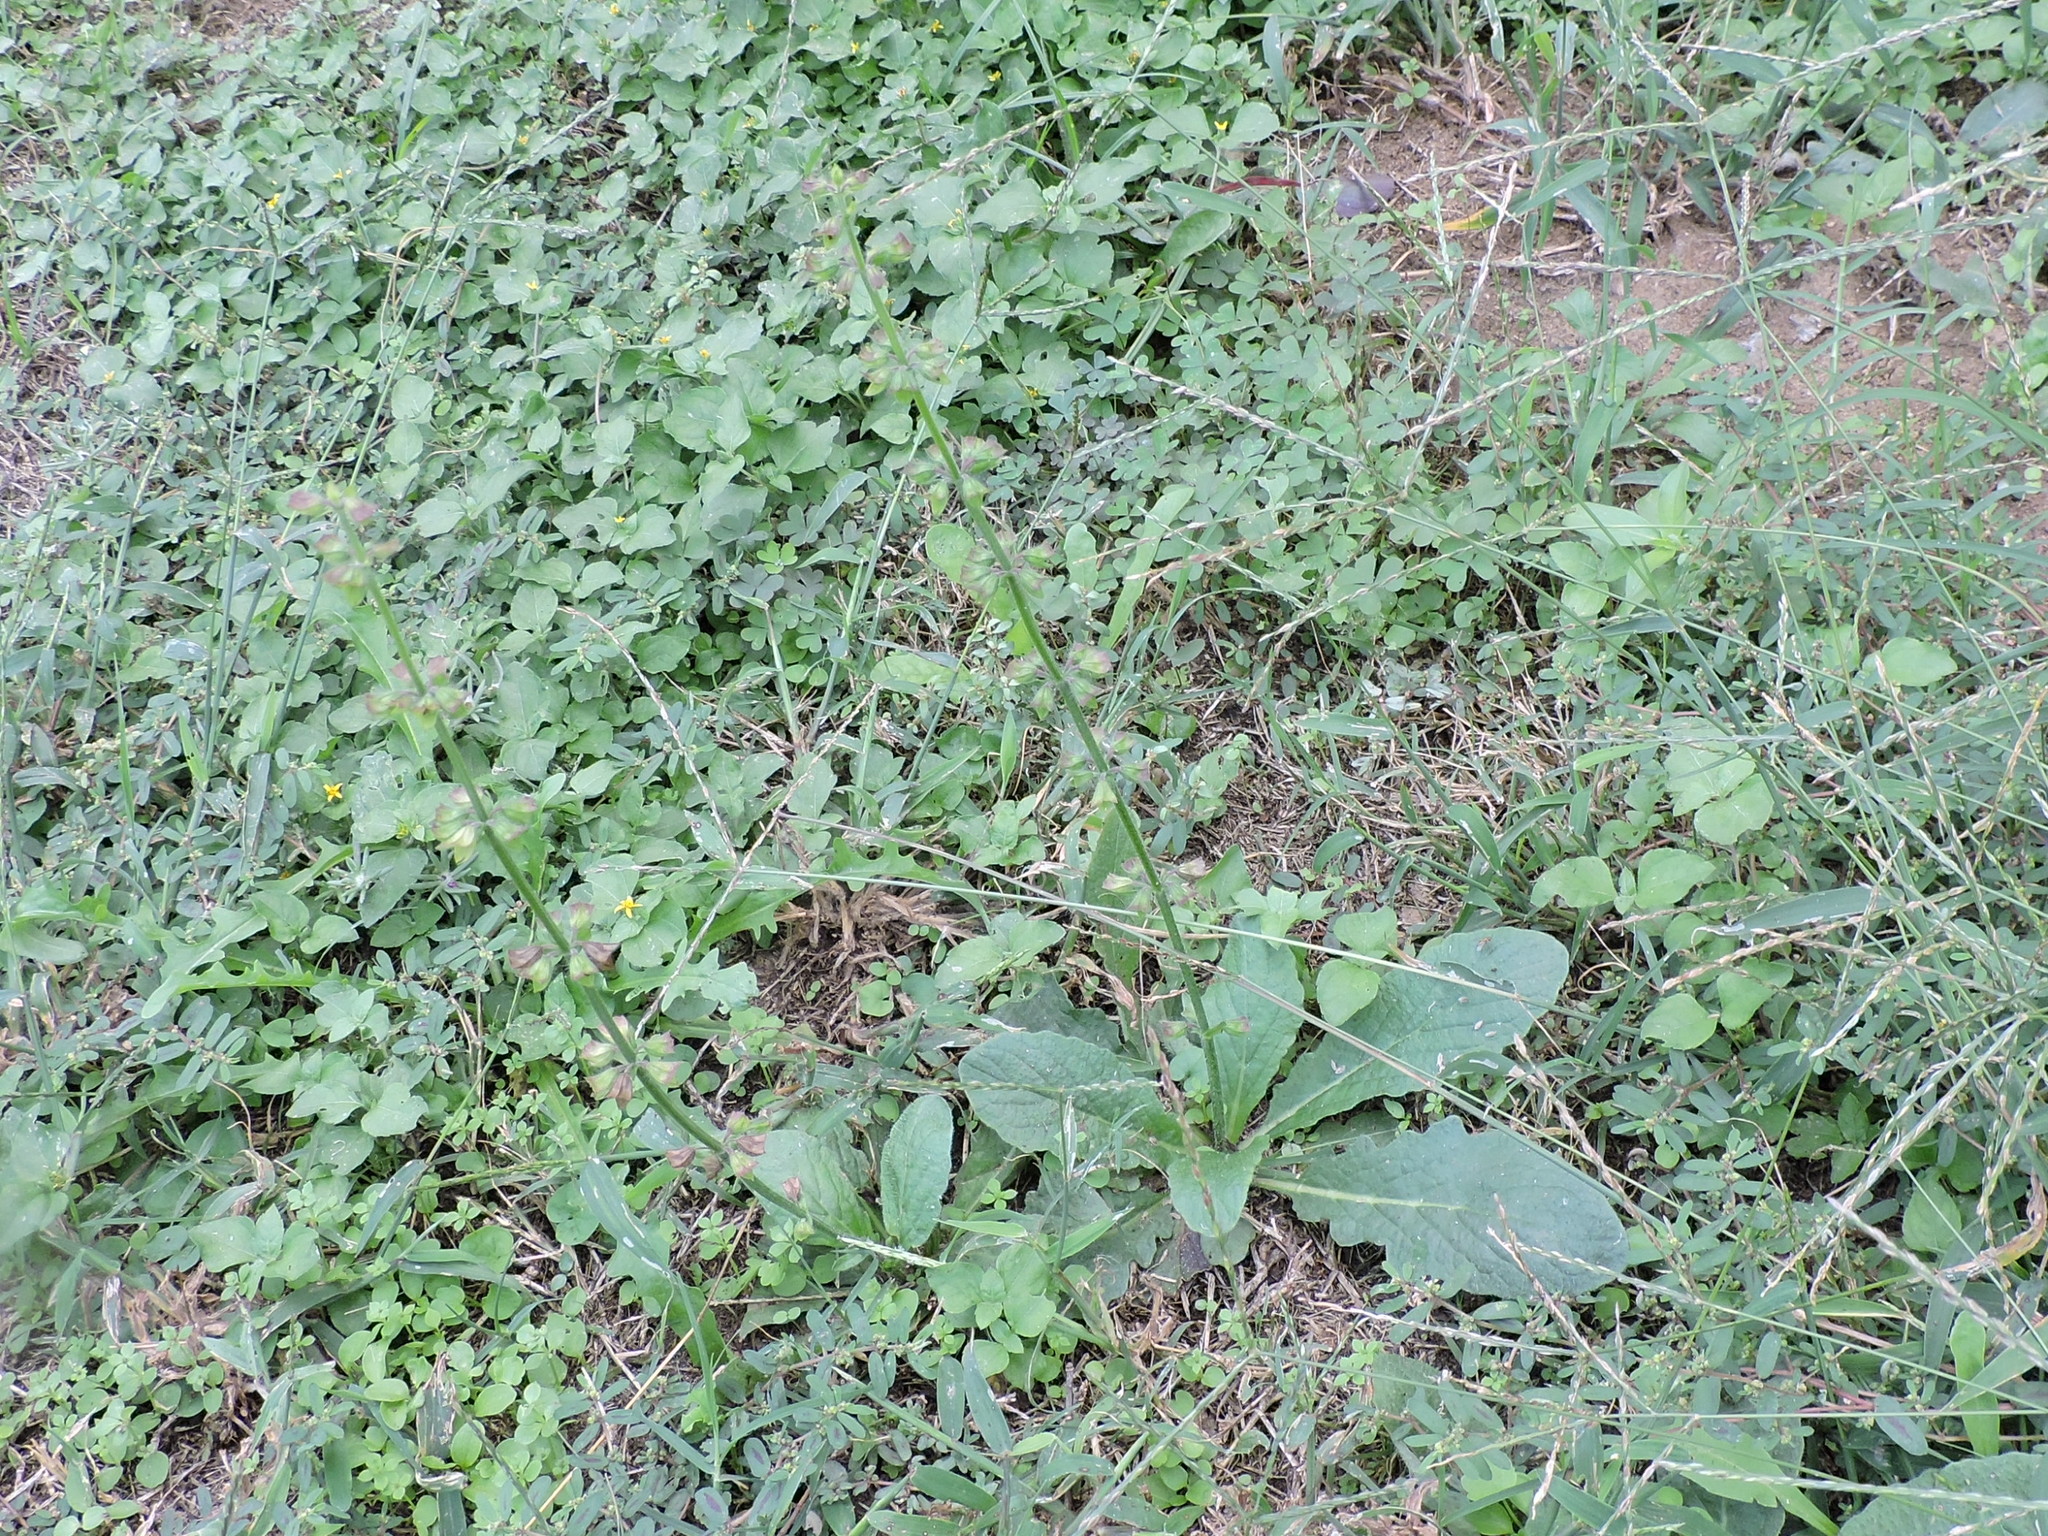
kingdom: Plantae
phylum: Tracheophyta
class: Magnoliopsida
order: Lamiales
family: Lamiaceae
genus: Salvia
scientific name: Salvia lyrata
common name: Cancerweed
